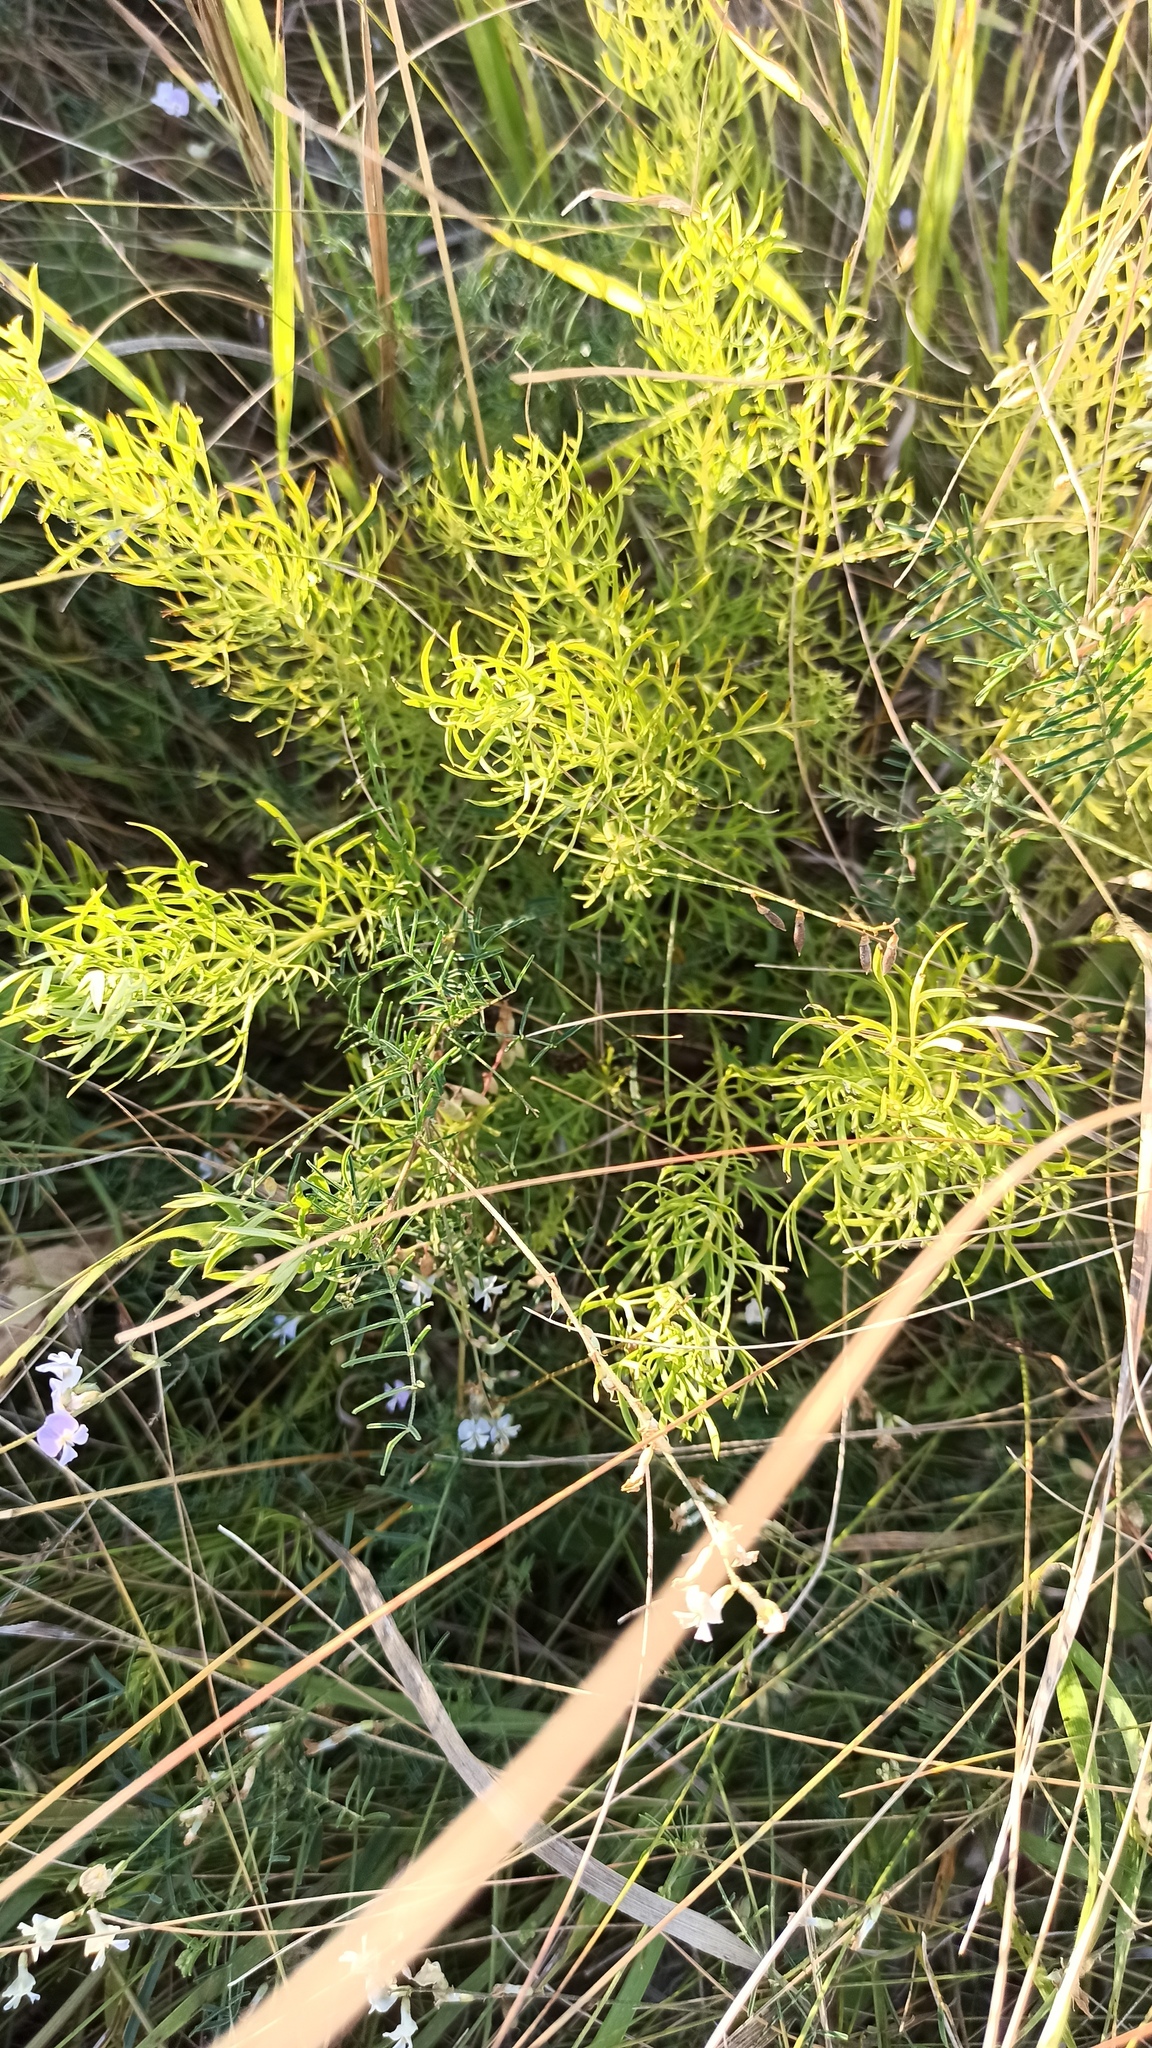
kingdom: Plantae
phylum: Tracheophyta
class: Magnoliopsida
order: Ranunculales
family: Ranunculaceae
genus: Adonis
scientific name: Adonis vernalis
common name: Yellow pheasants-eye
